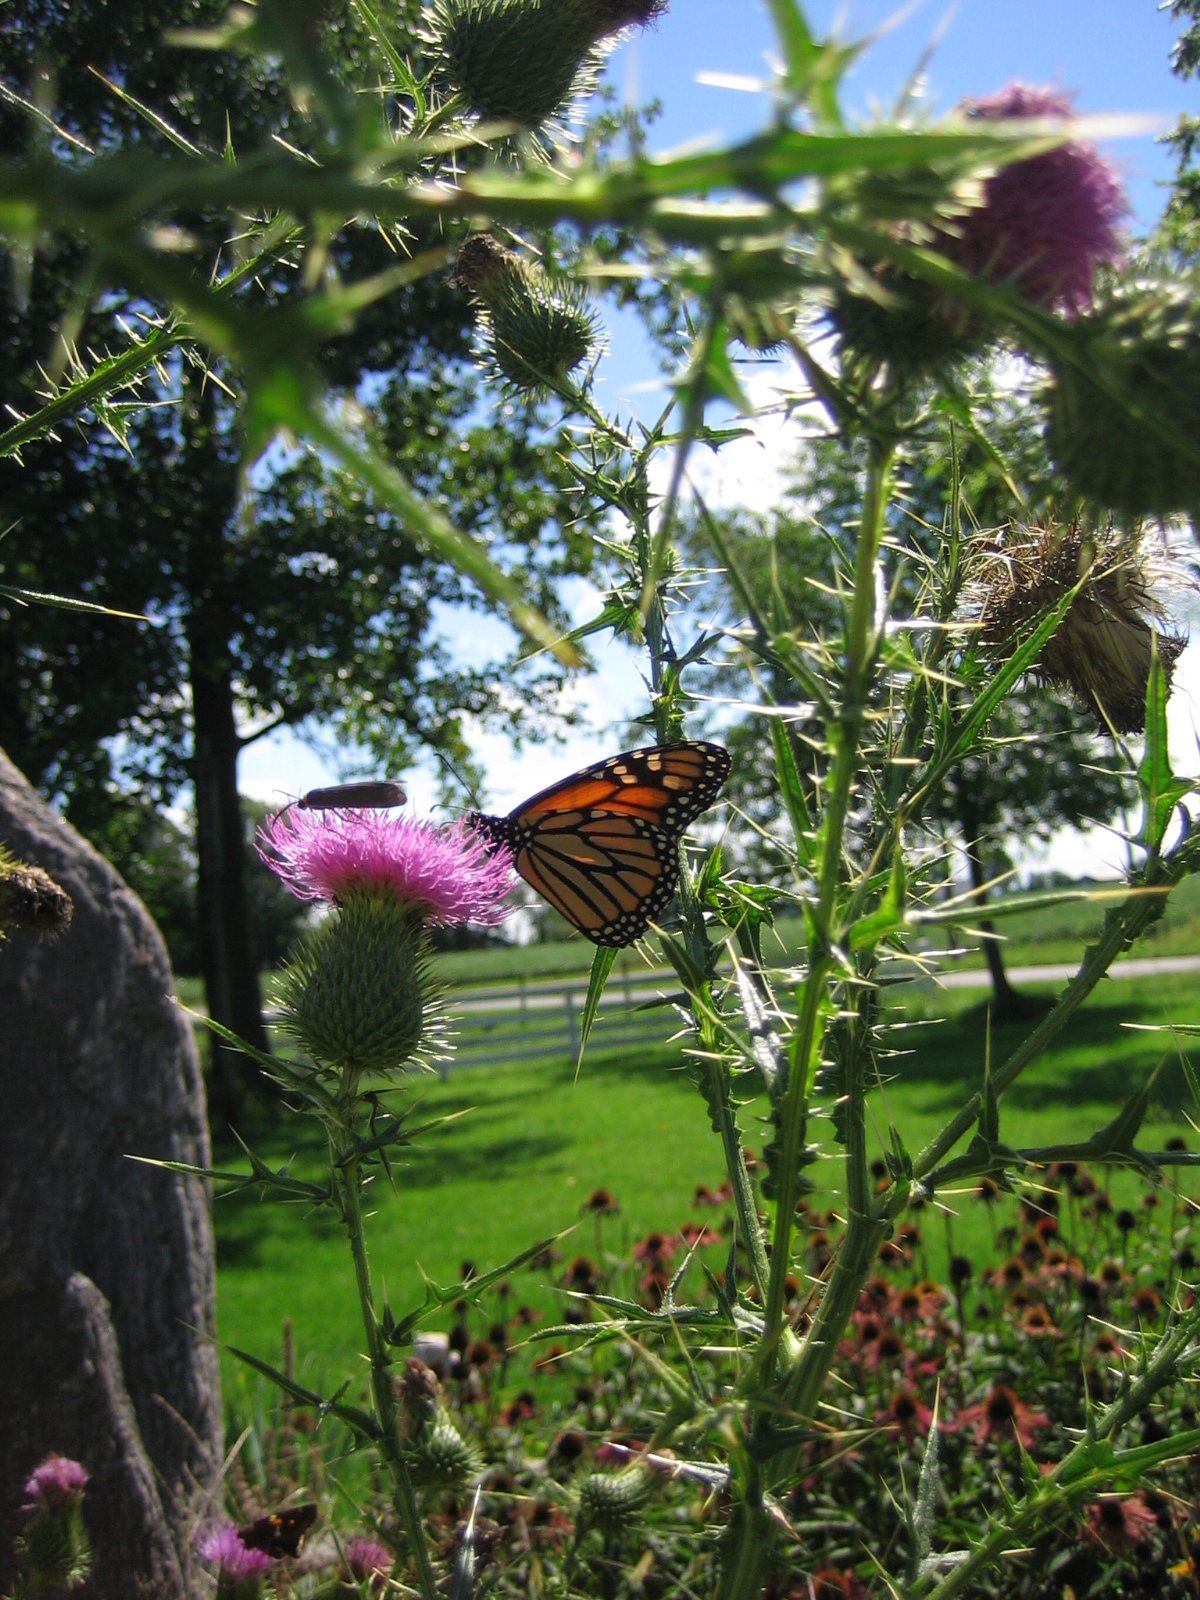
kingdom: Animalia
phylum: Arthropoda
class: Insecta
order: Lepidoptera
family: Nymphalidae
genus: Danaus
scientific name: Danaus plexippus
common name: Monarch
